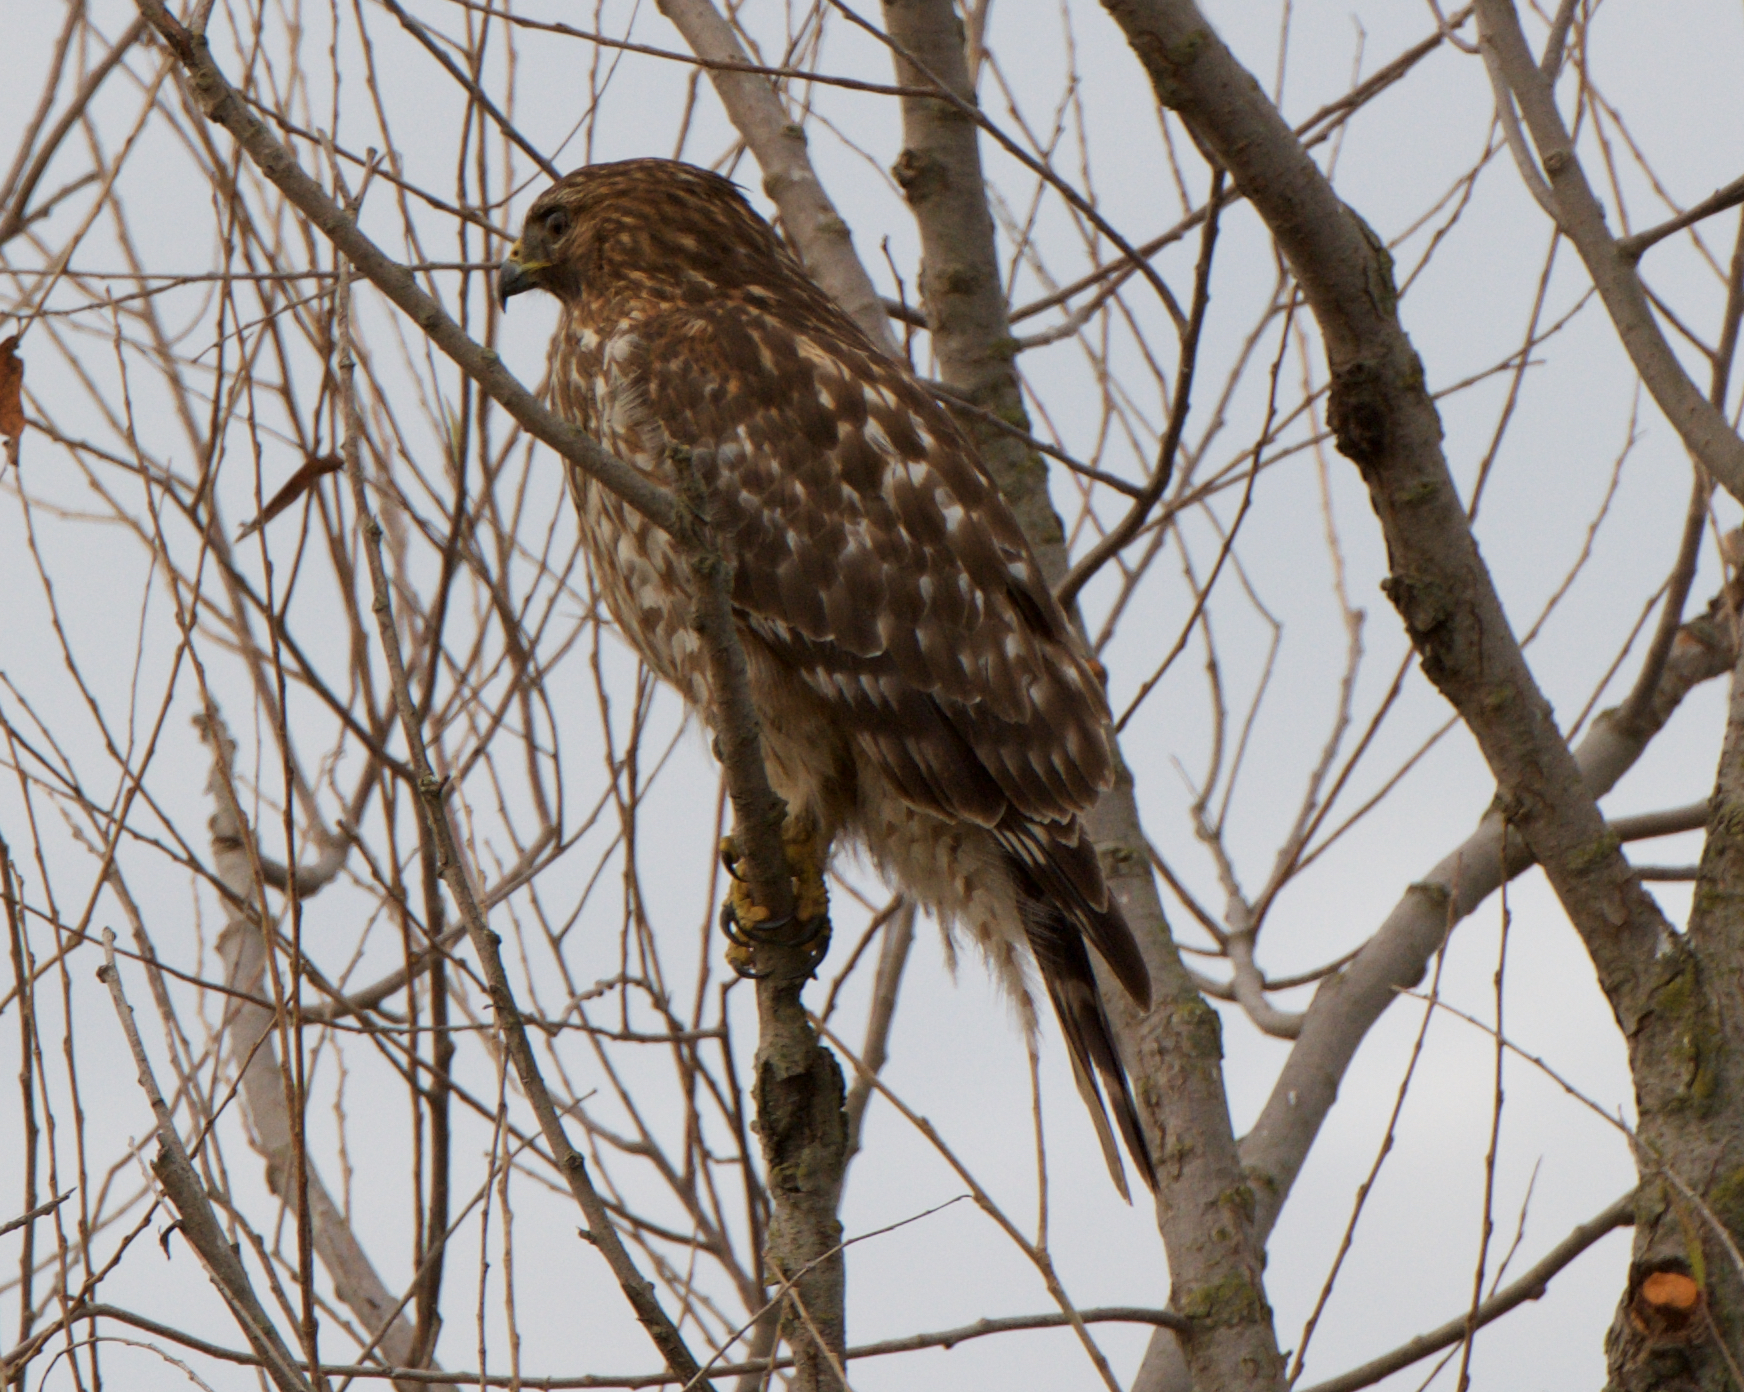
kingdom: Animalia
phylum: Chordata
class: Aves
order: Accipitriformes
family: Accipitridae
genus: Buteo
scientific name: Buteo lineatus
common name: Red-shouldered hawk
